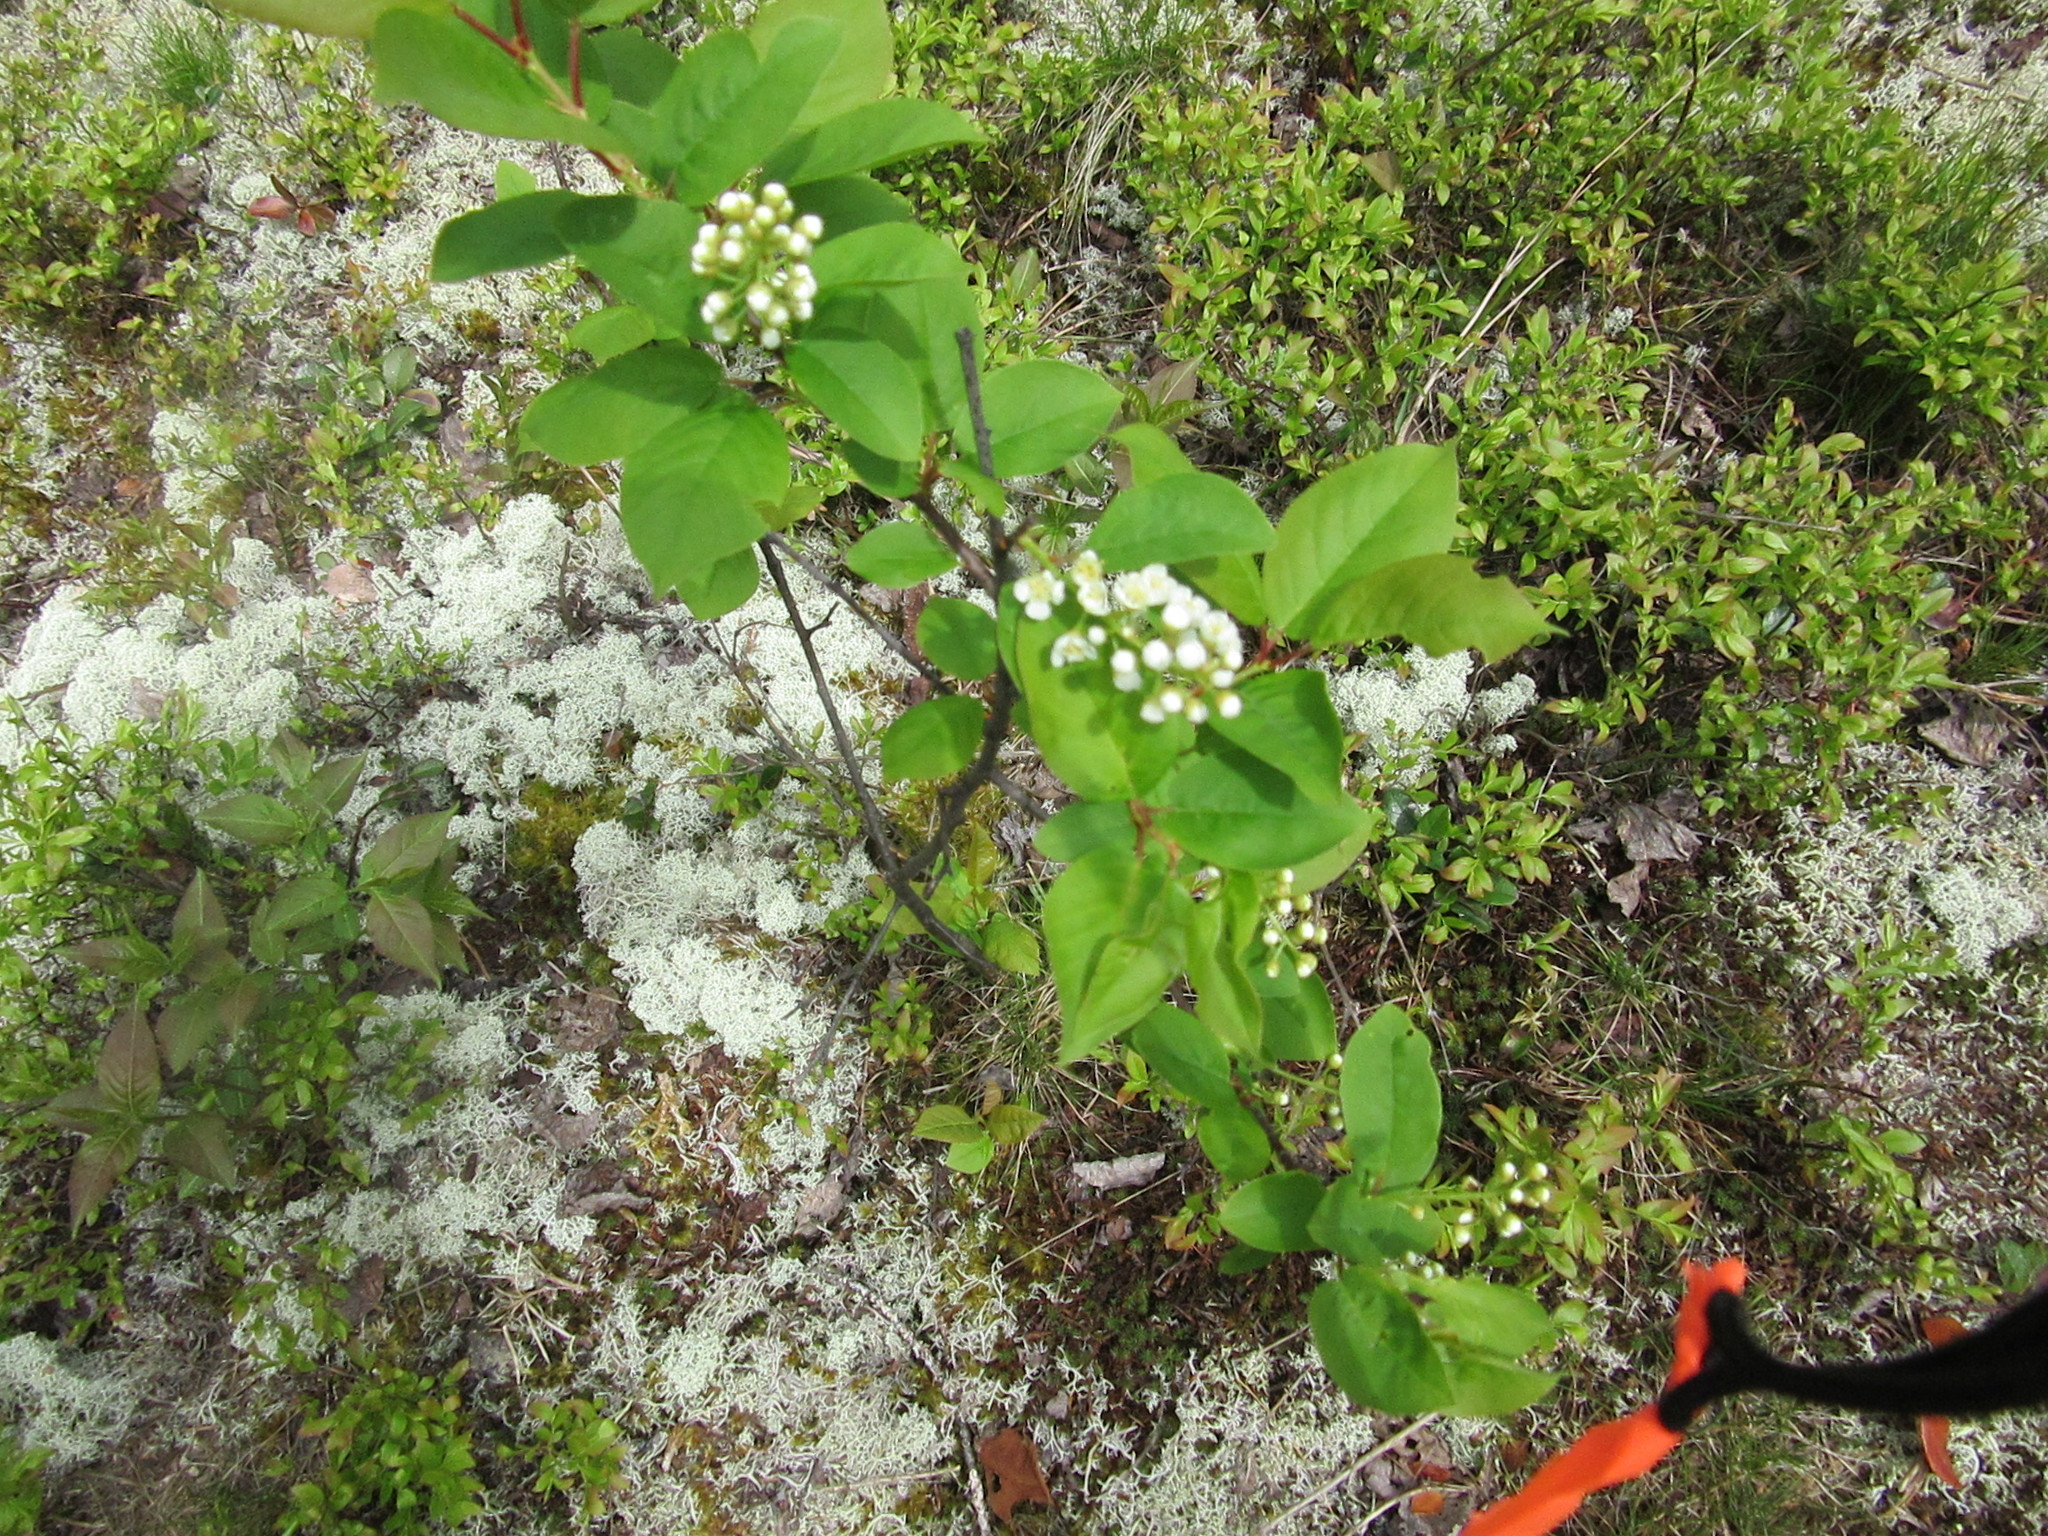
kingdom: Plantae
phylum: Tracheophyta
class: Magnoliopsida
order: Rosales
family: Rosaceae
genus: Prunus
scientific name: Prunus virginiana
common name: Chokecherry
